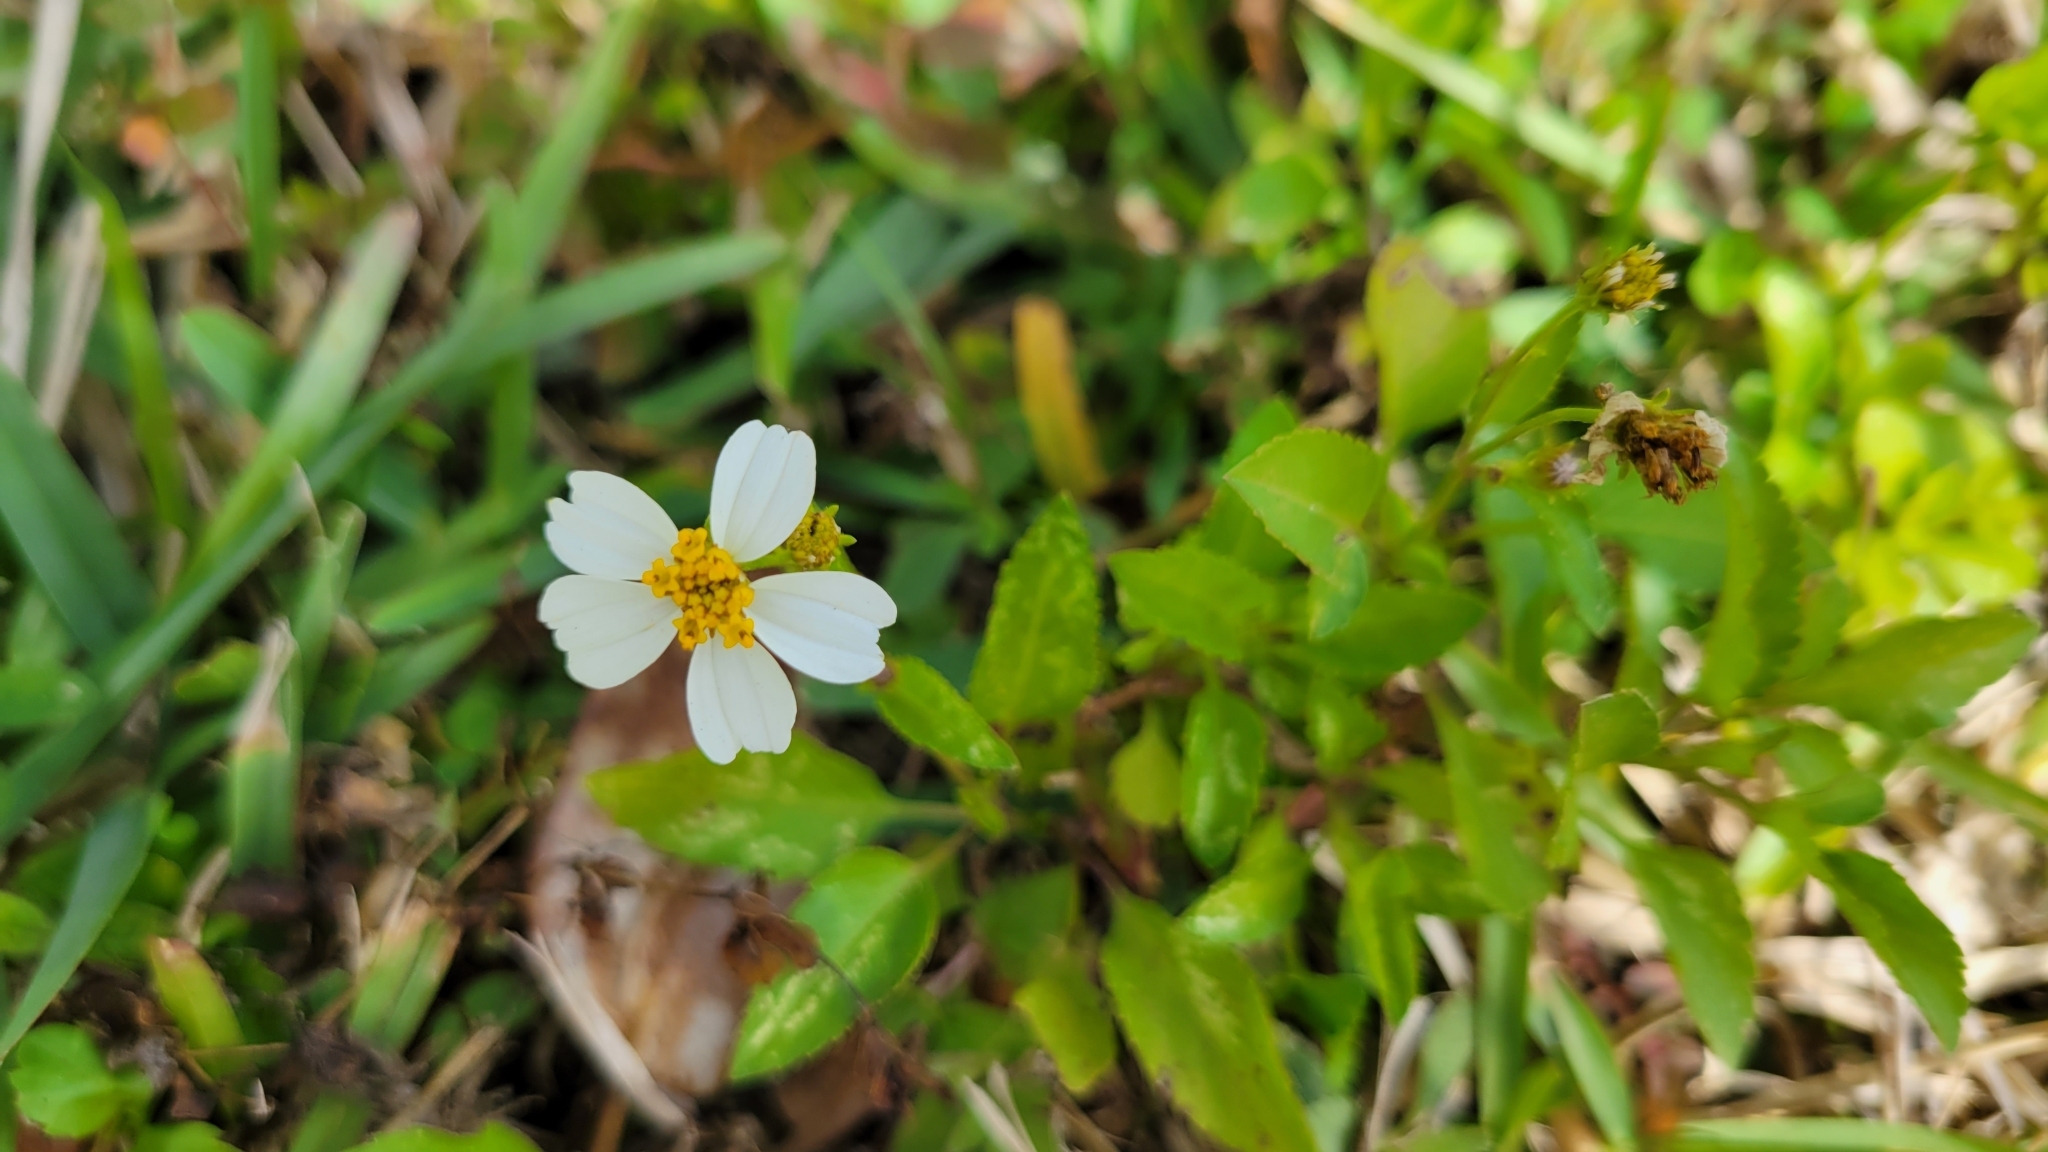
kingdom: Plantae
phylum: Tracheophyta
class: Magnoliopsida
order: Asterales
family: Asteraceae
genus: Bidens
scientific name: Bidens alba
